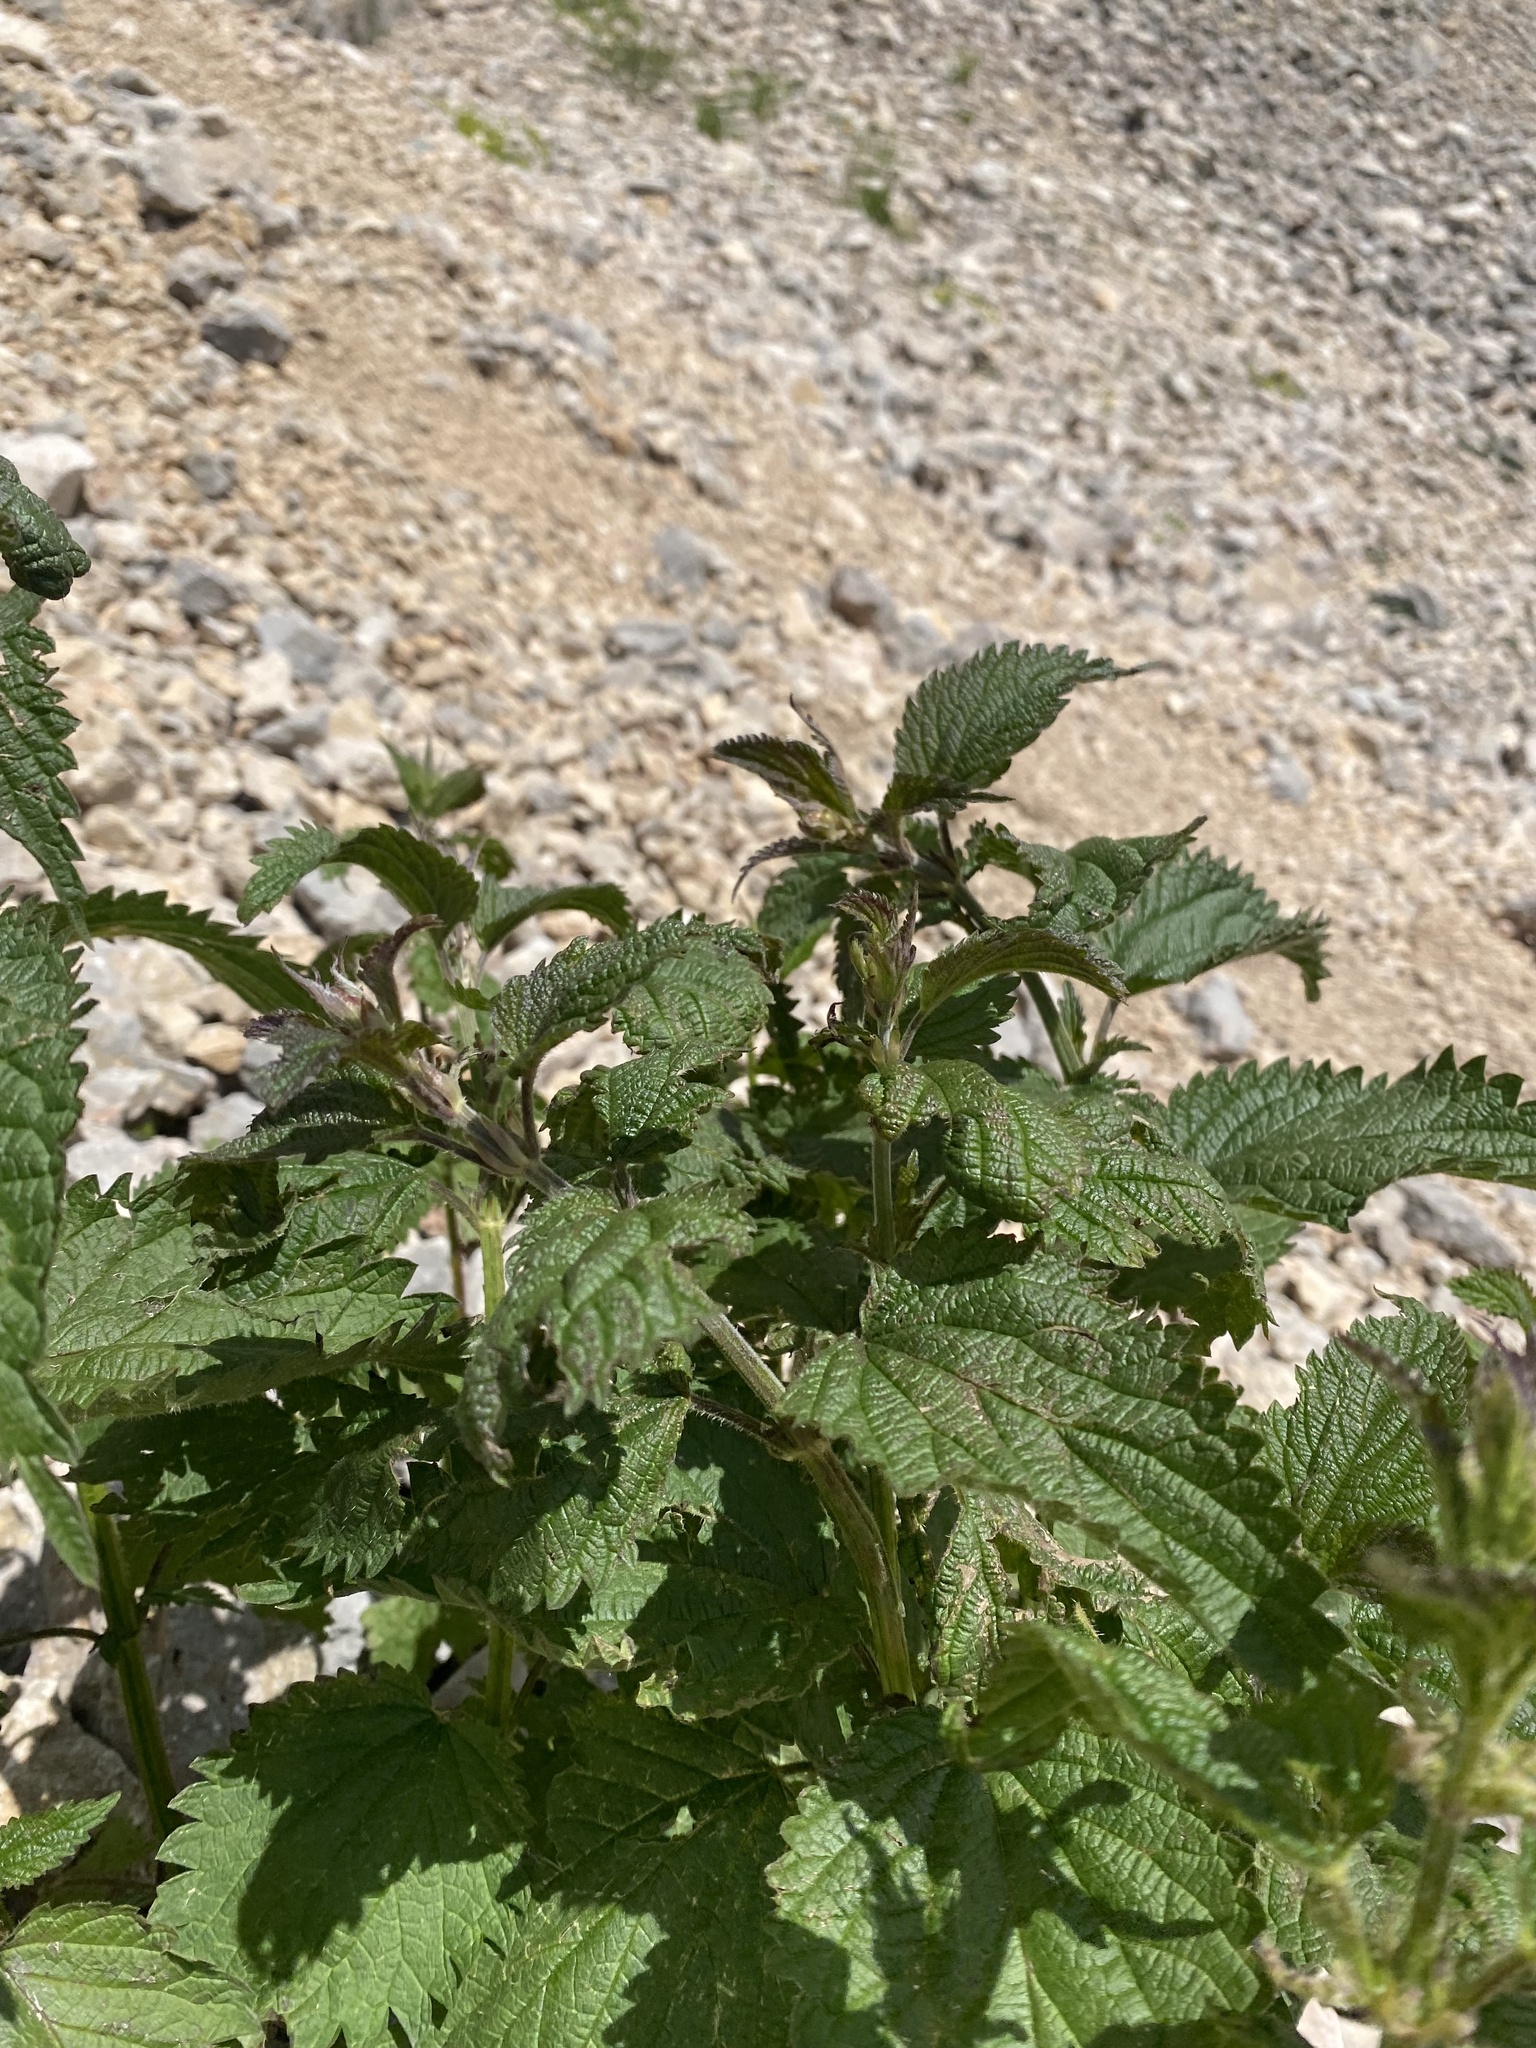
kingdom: Plantae
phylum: Tracheophyta
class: Magnoliopsida
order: Rosales
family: Urticaceae
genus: Urtica
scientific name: Urtica dioica
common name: Common nettle
